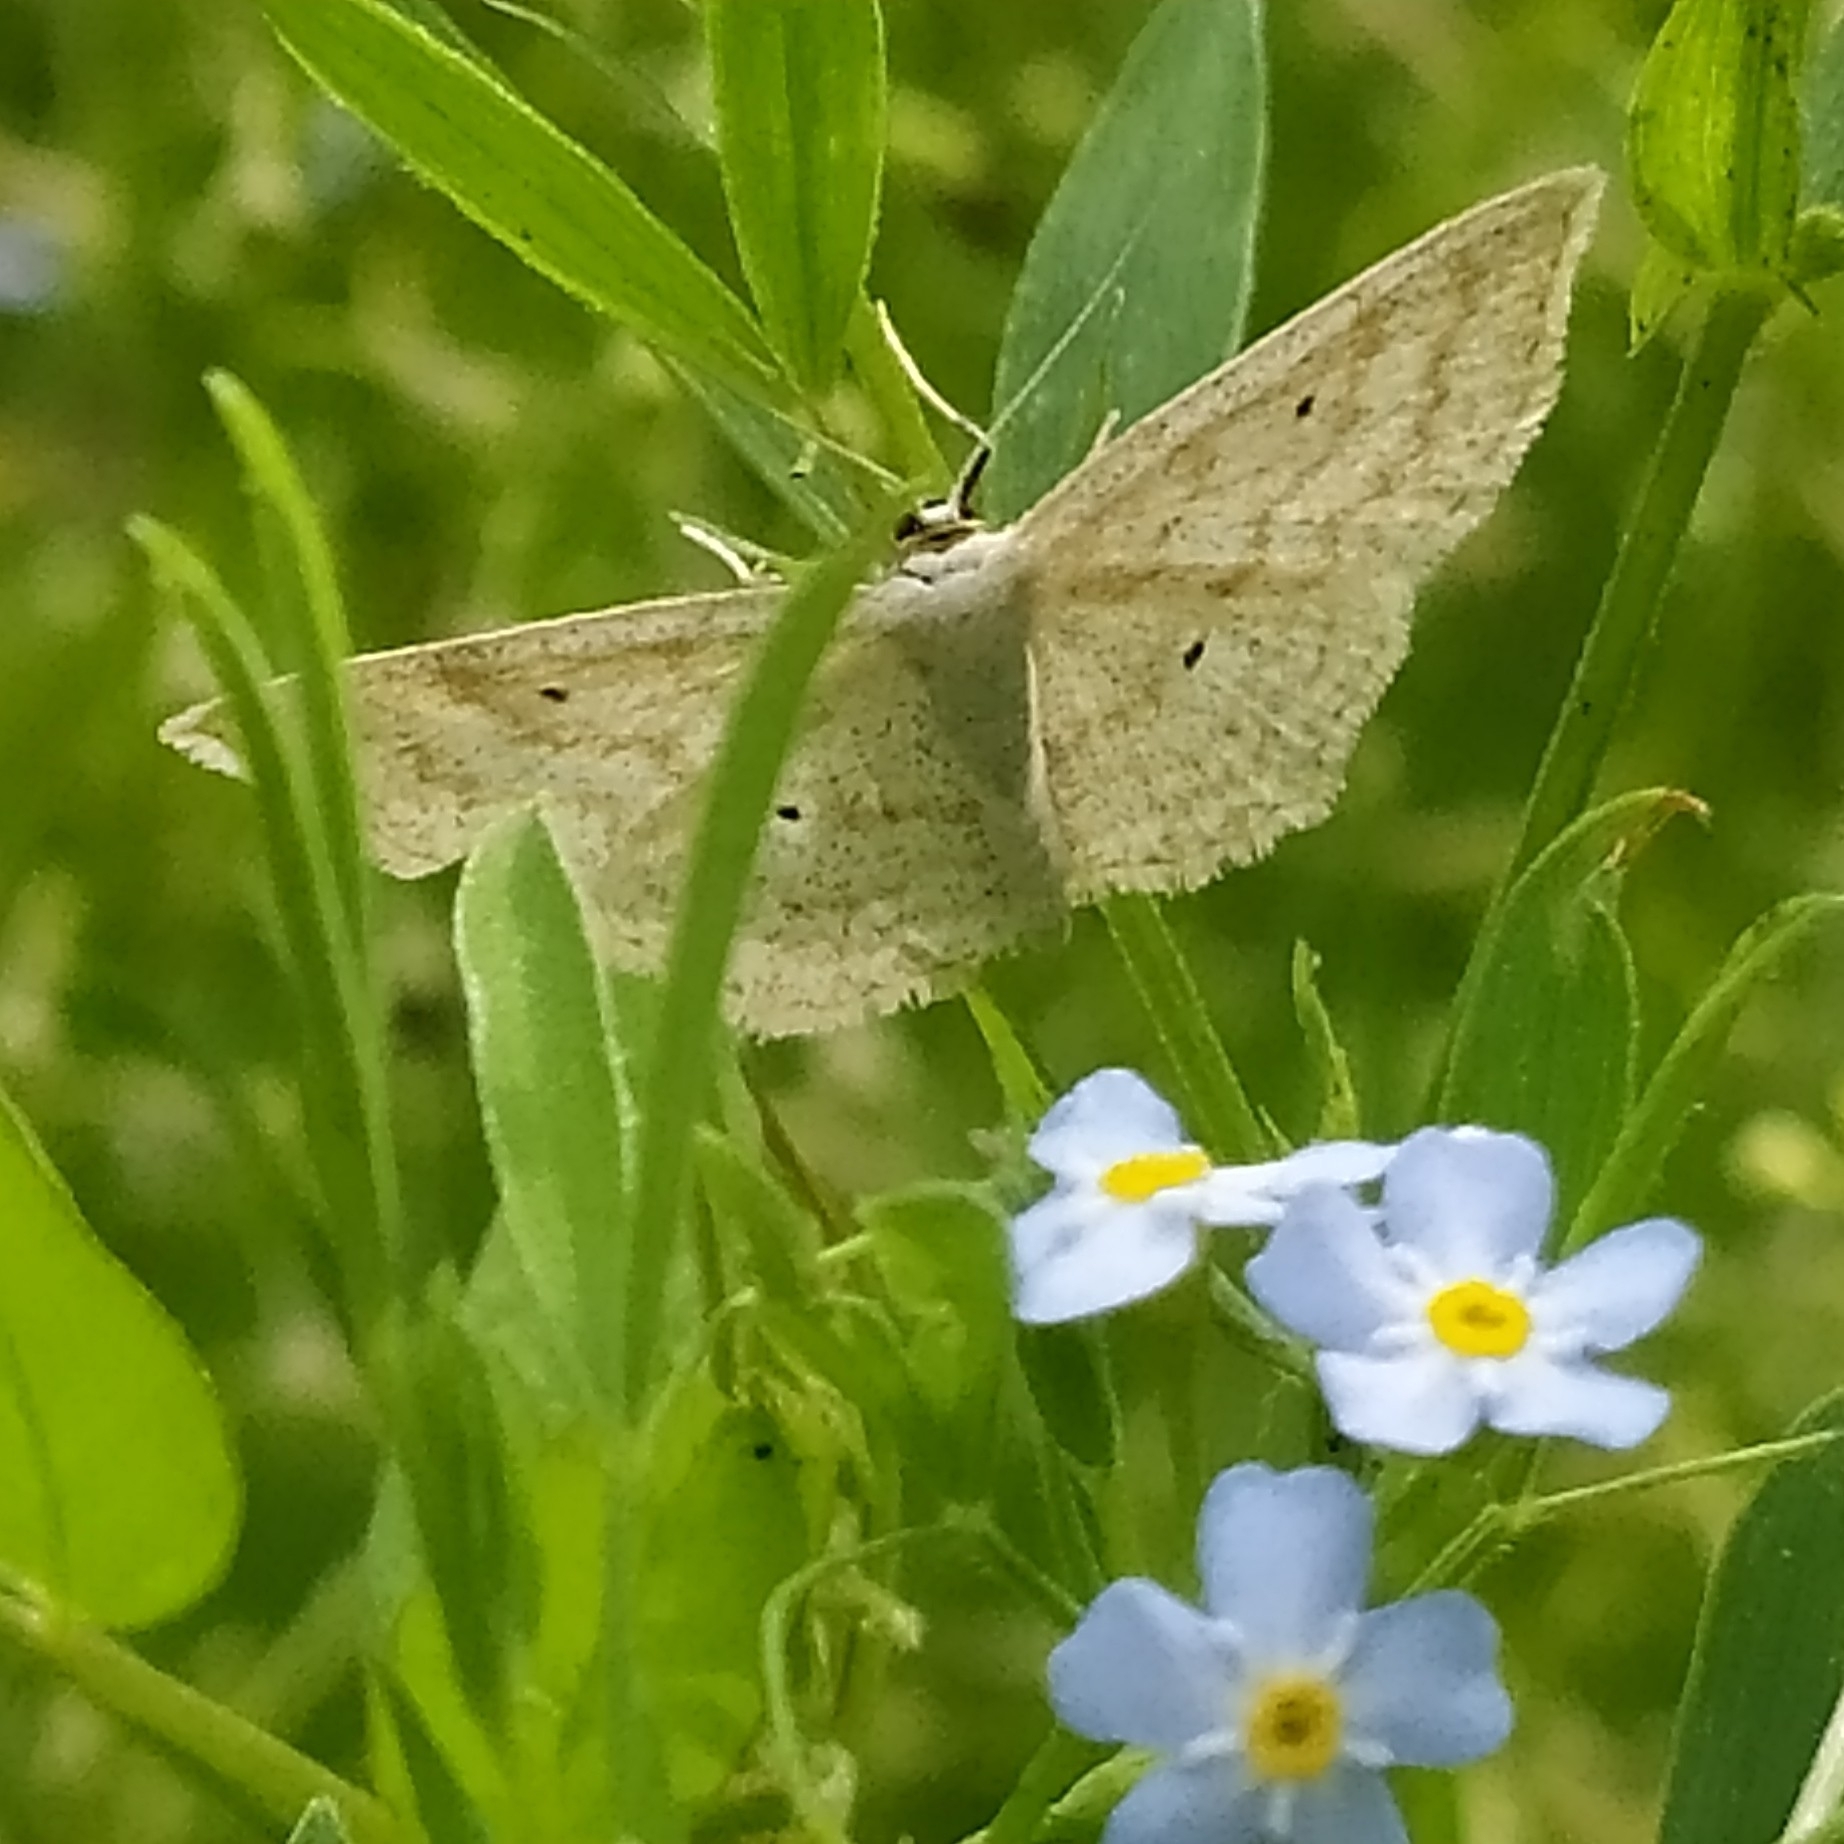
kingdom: Animalia
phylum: Arthropoda
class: Insecta
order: Lepidoptera
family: Geometridae
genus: Scopula
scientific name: Scopula immutata
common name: Lesser cream wave
